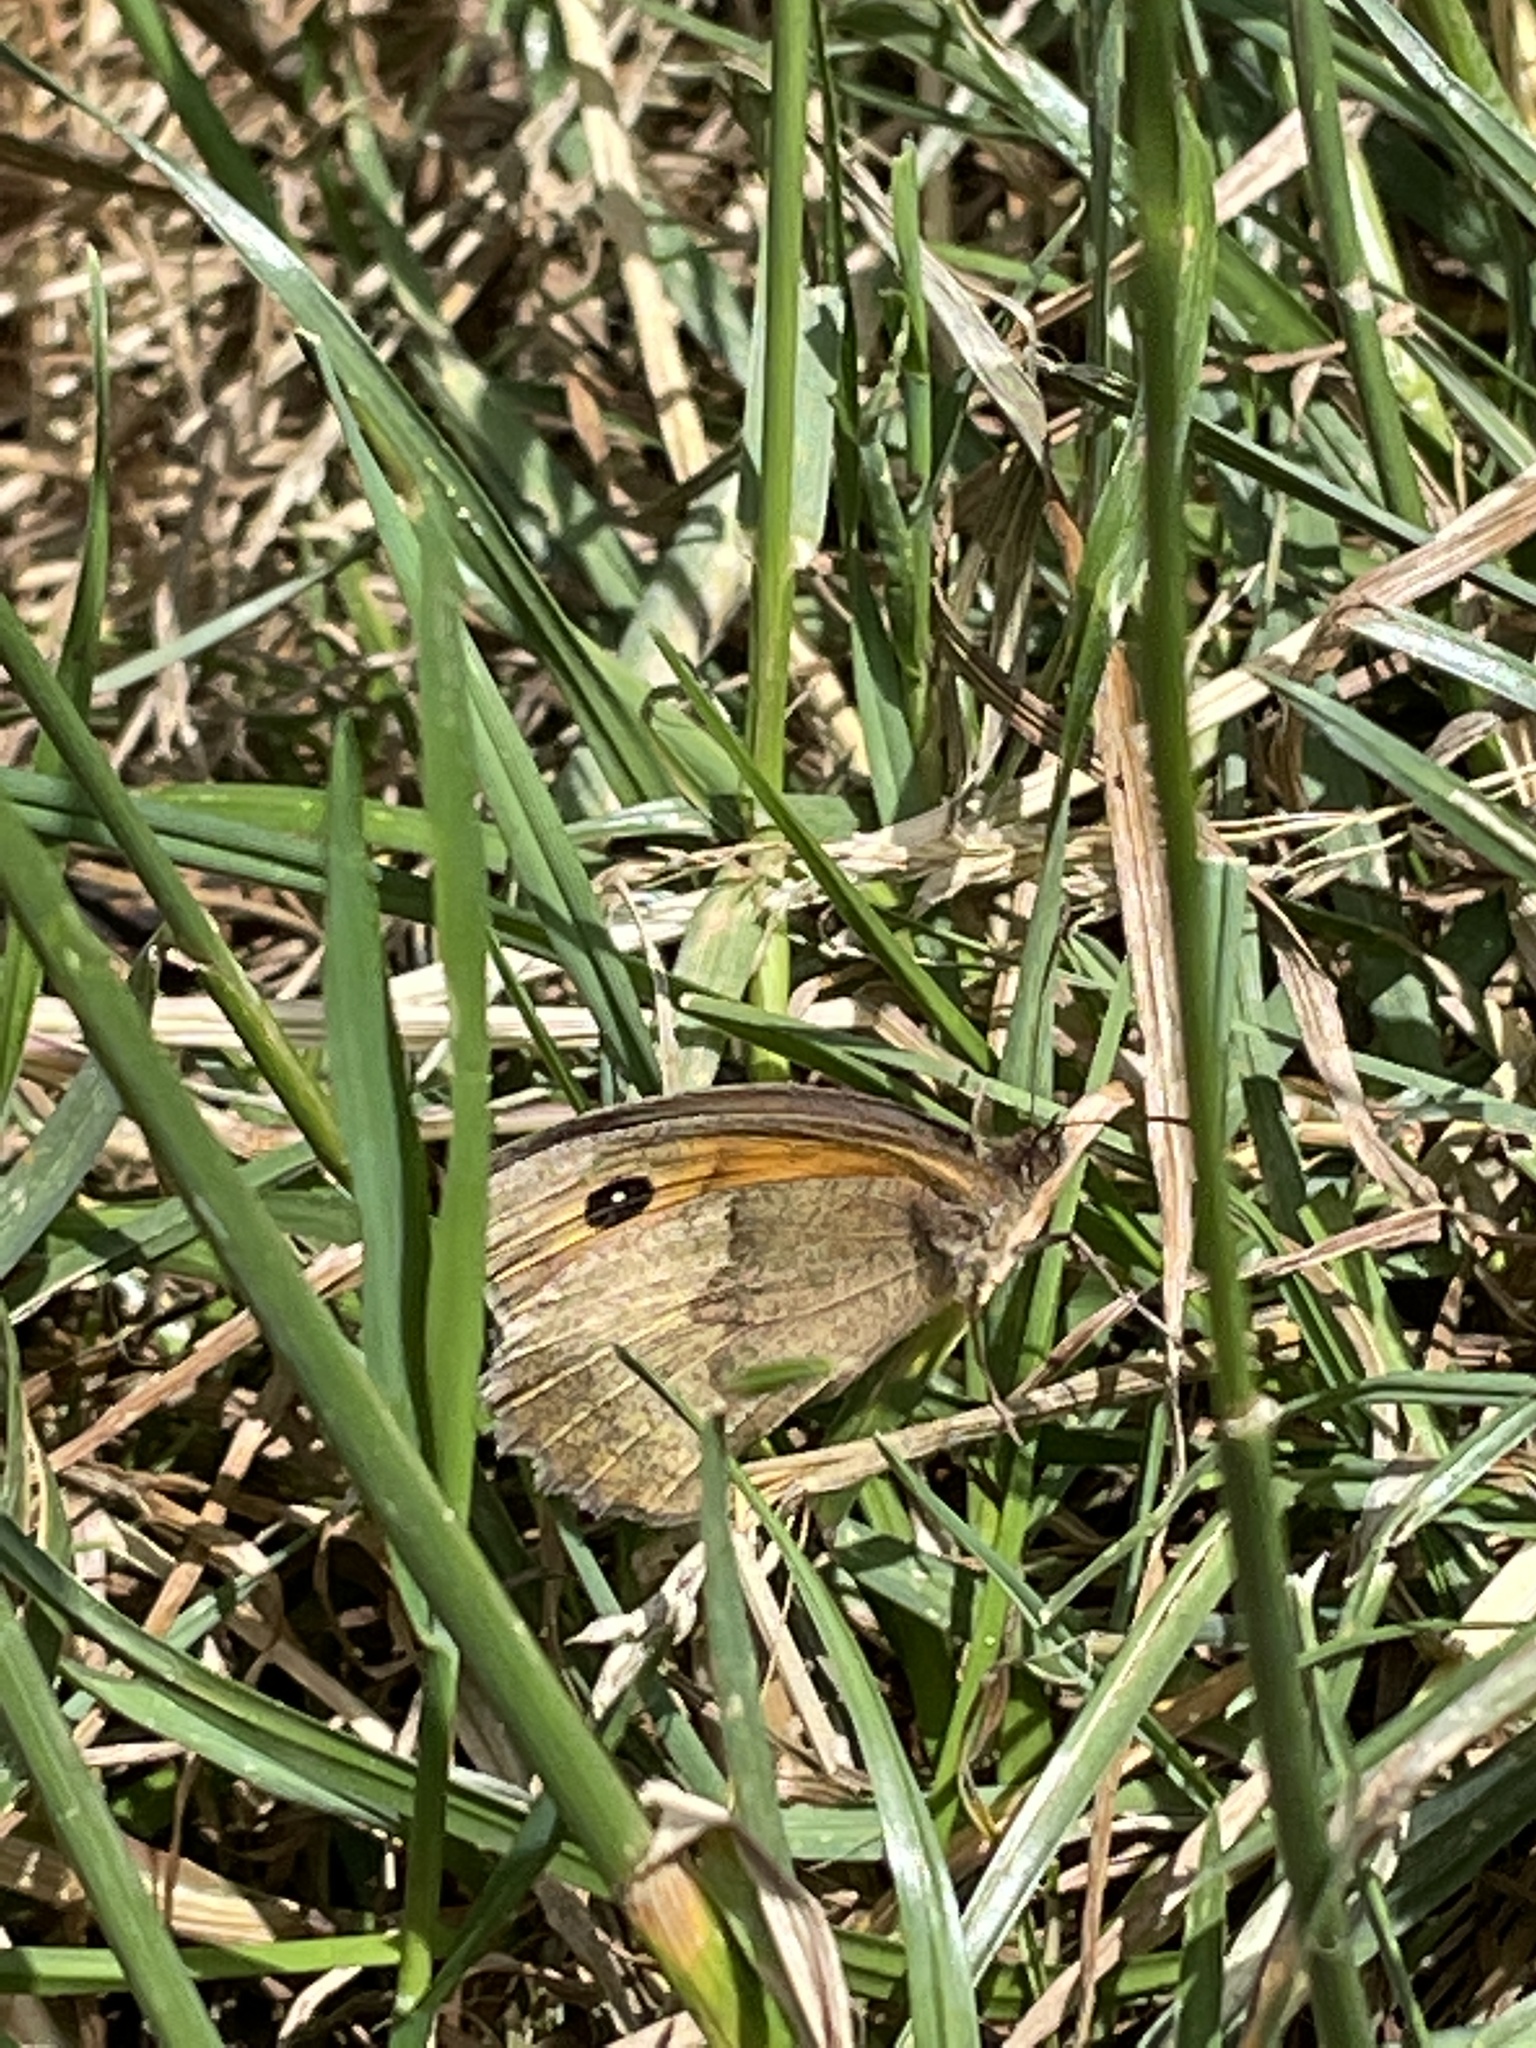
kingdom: Animalia
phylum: Arthropoda
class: Insecta
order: Lepidoptera
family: Nymphalidae
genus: Maniola
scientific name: Maniola jurtina
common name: Meadow brown
